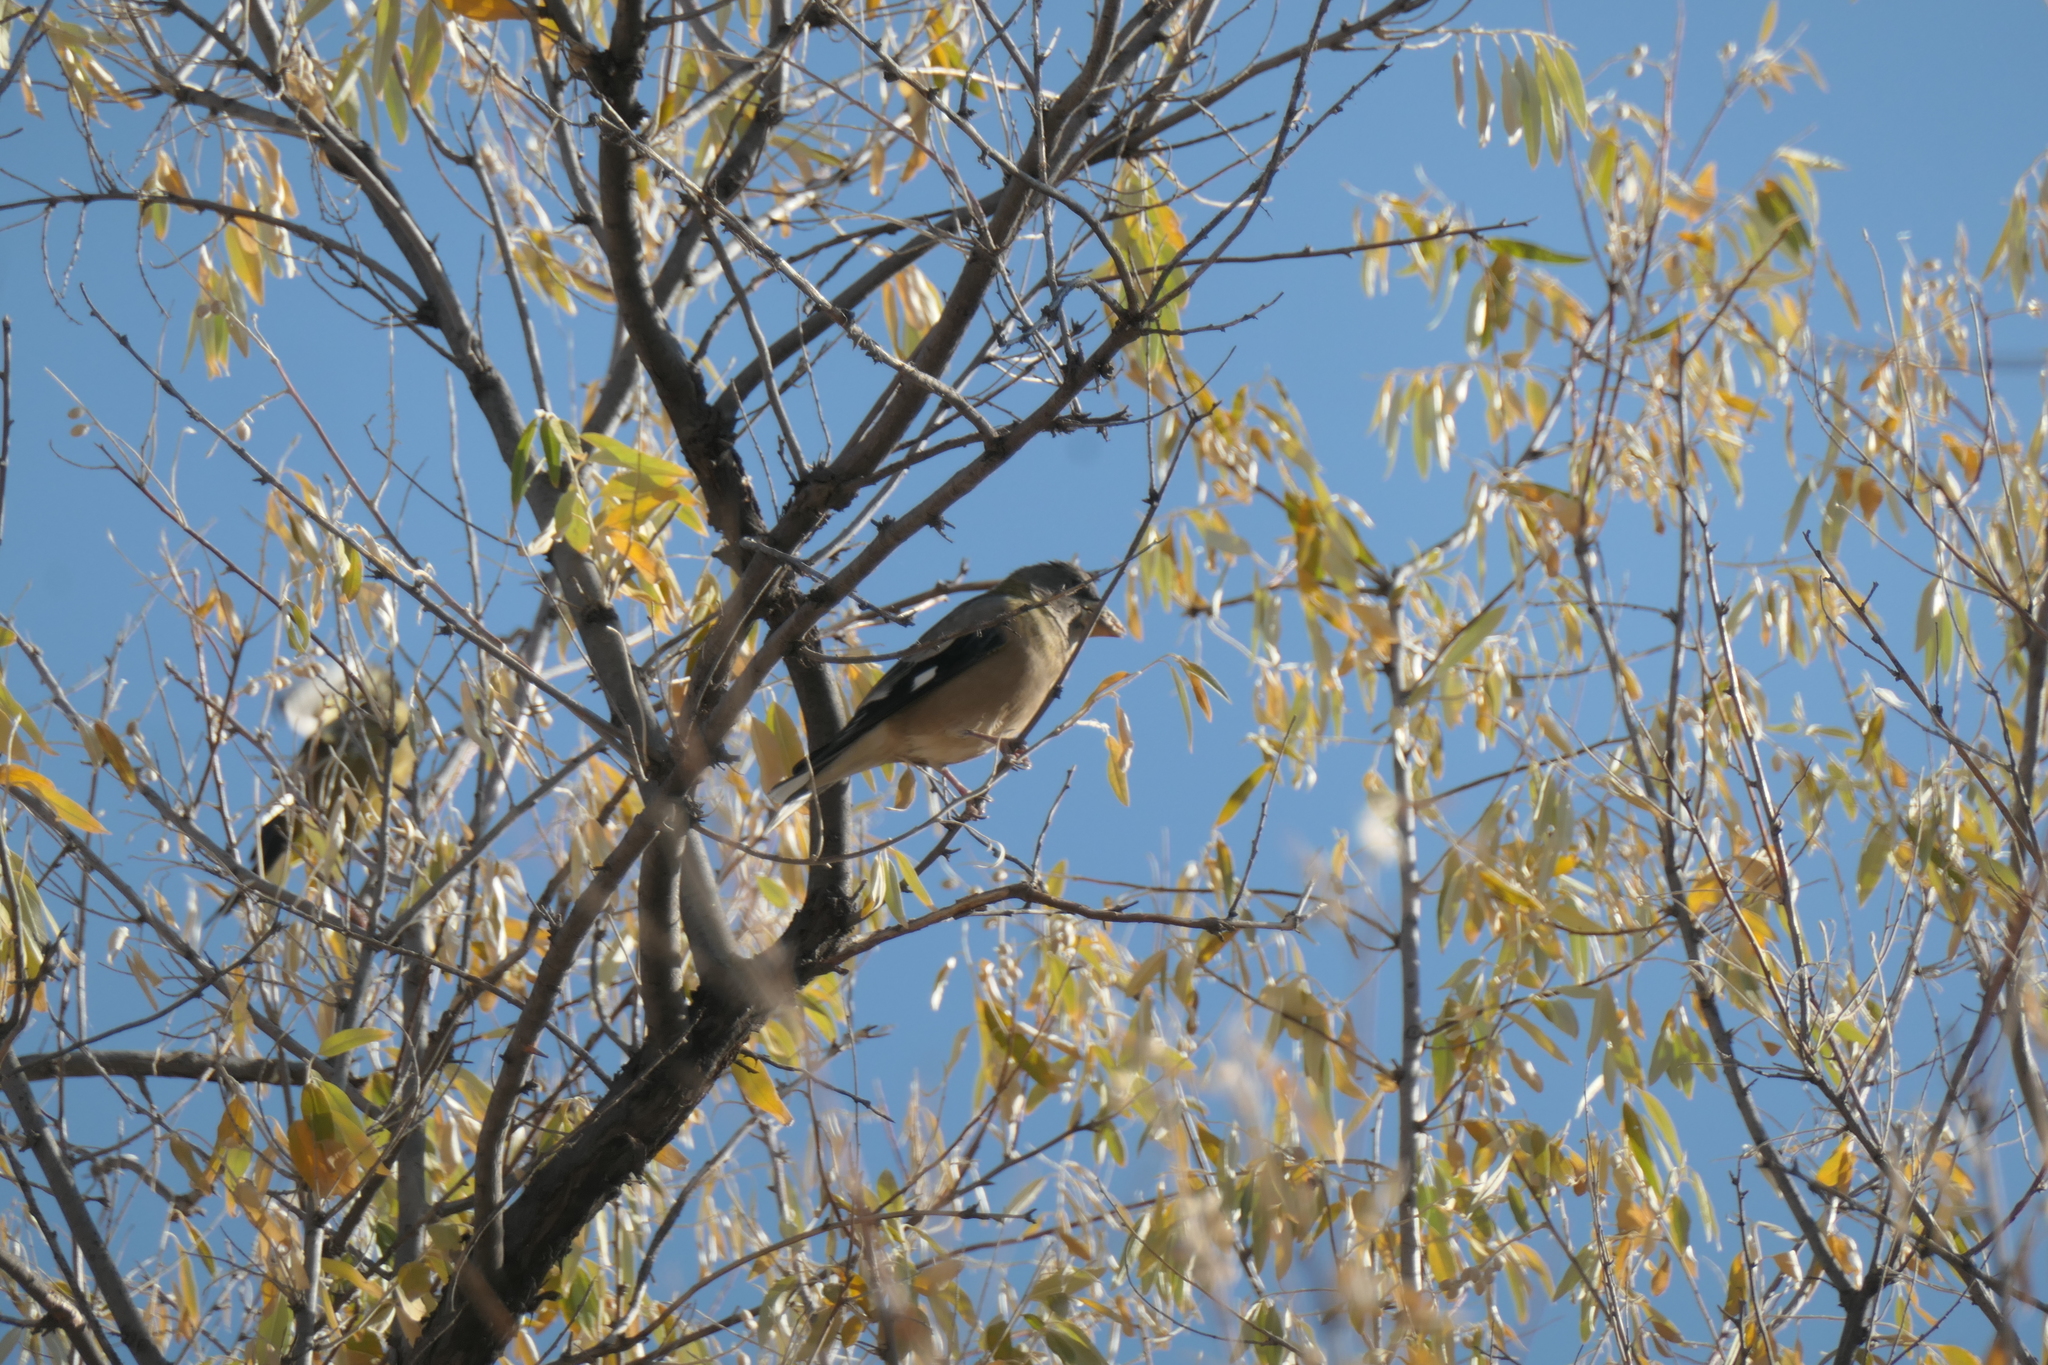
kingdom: Animalia
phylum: Chordata
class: Aves
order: Passeriformes
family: Fringillidae
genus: Hesperiphona
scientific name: Hesperiphona vespertina
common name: Evening grosbeak
